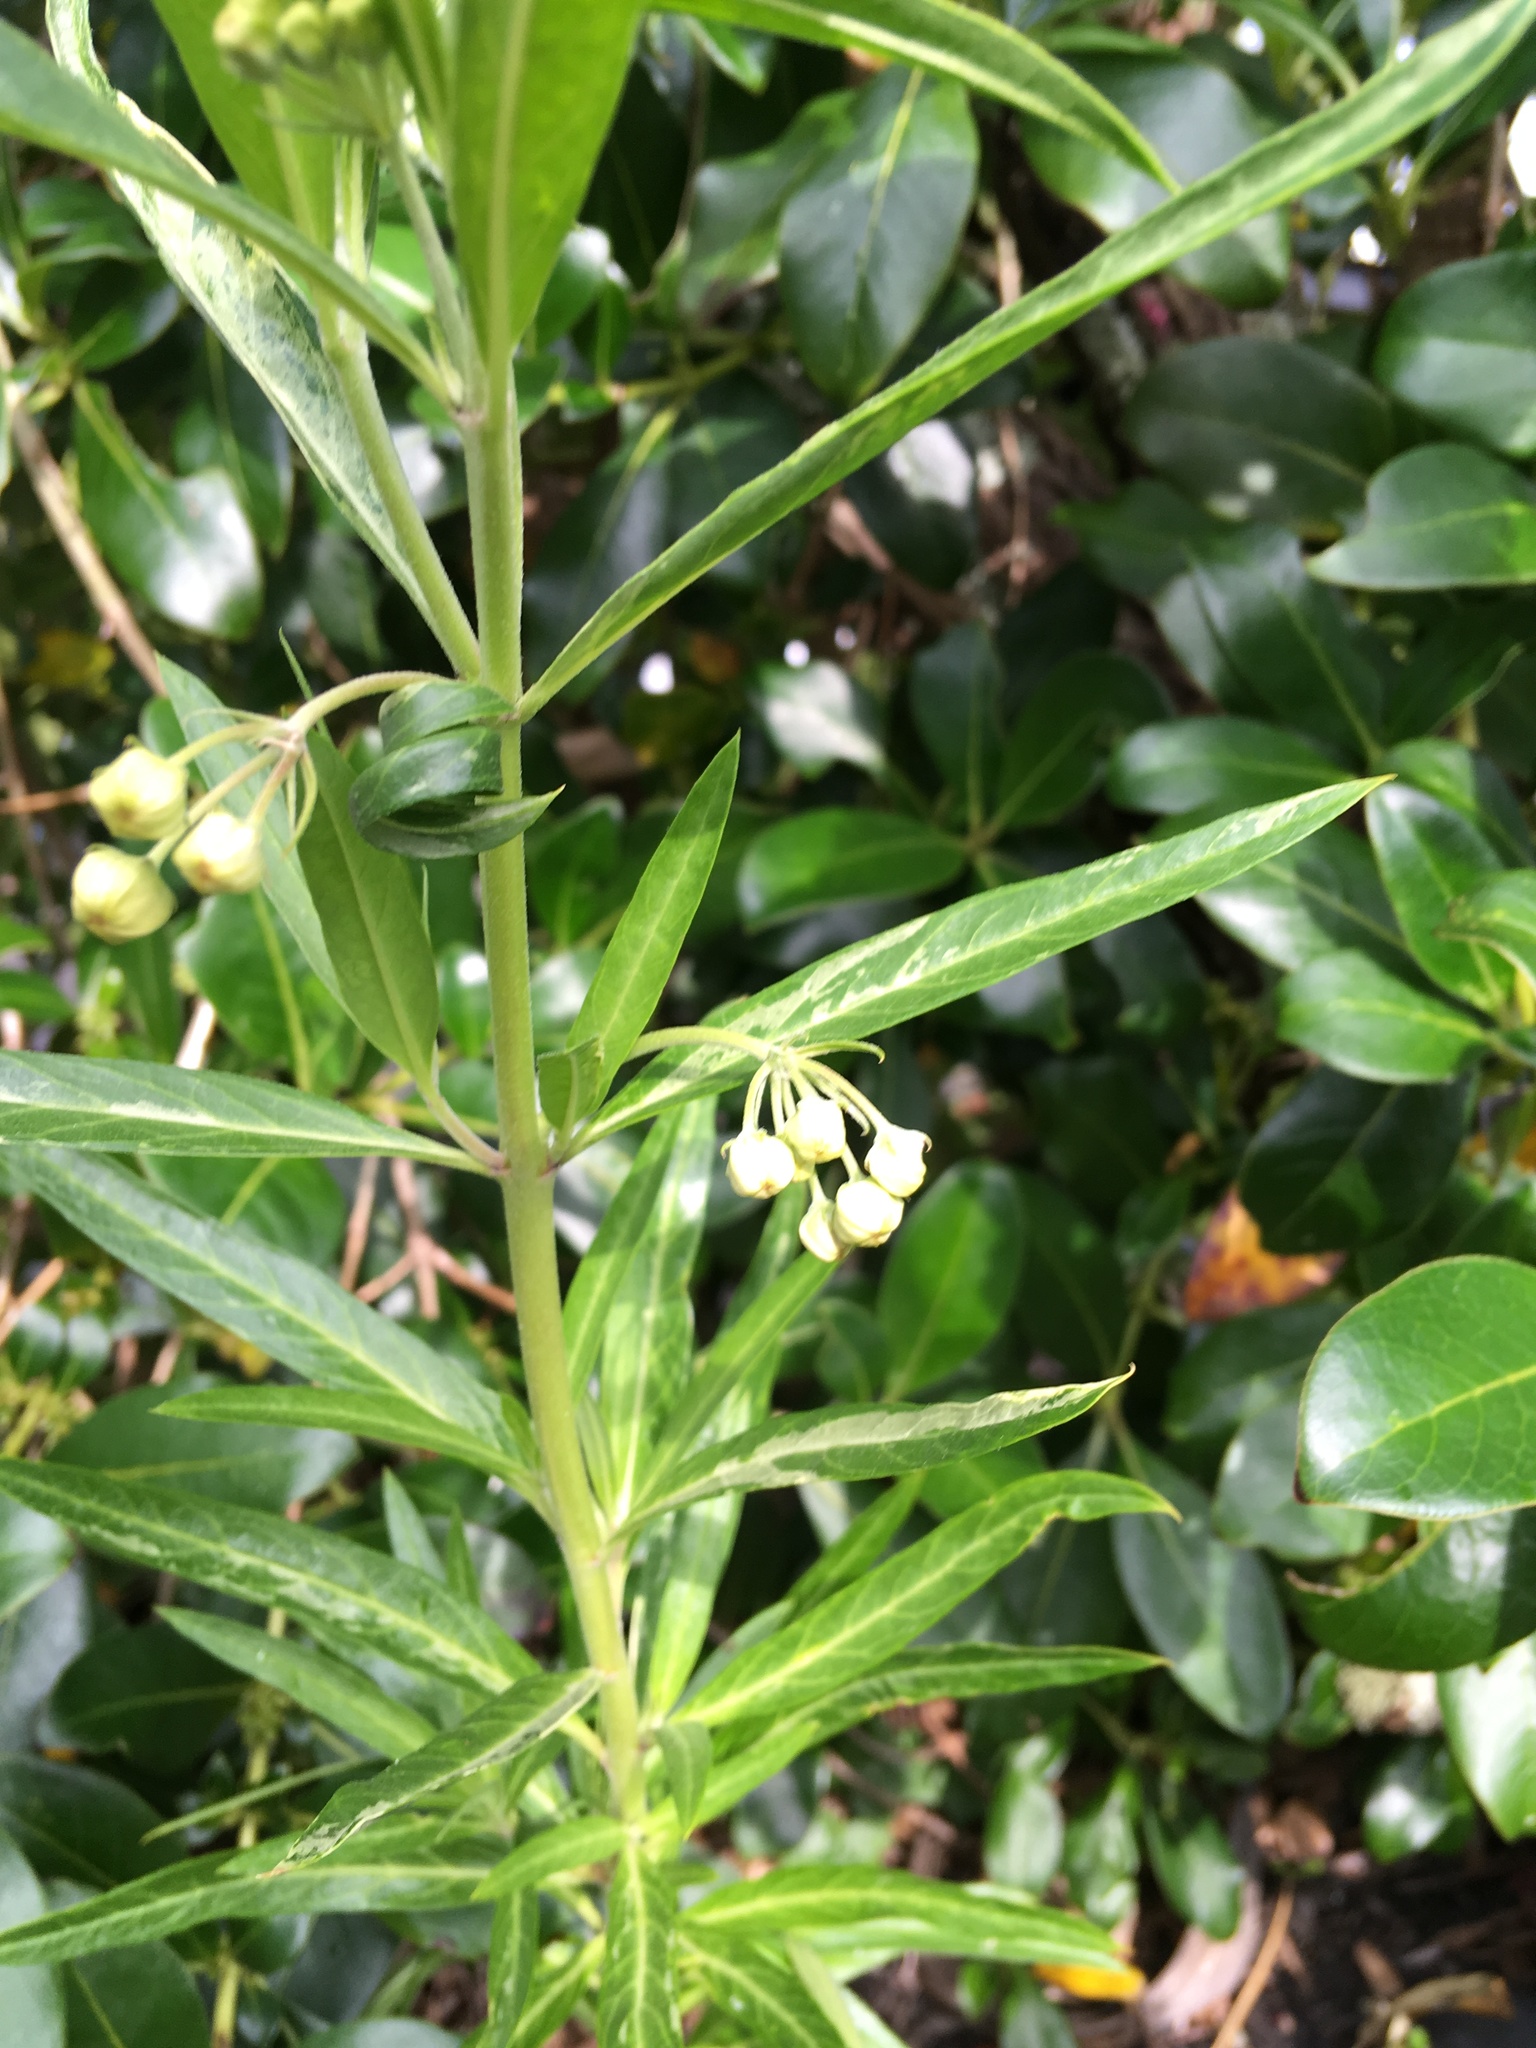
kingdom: Plantae
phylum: Tracheophyta
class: Magnoliopsida
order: Gentianales
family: Apocynaceae
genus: Gomphocarpus
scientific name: Gomphocarpus physocarpus
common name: Balloon cotton bush
